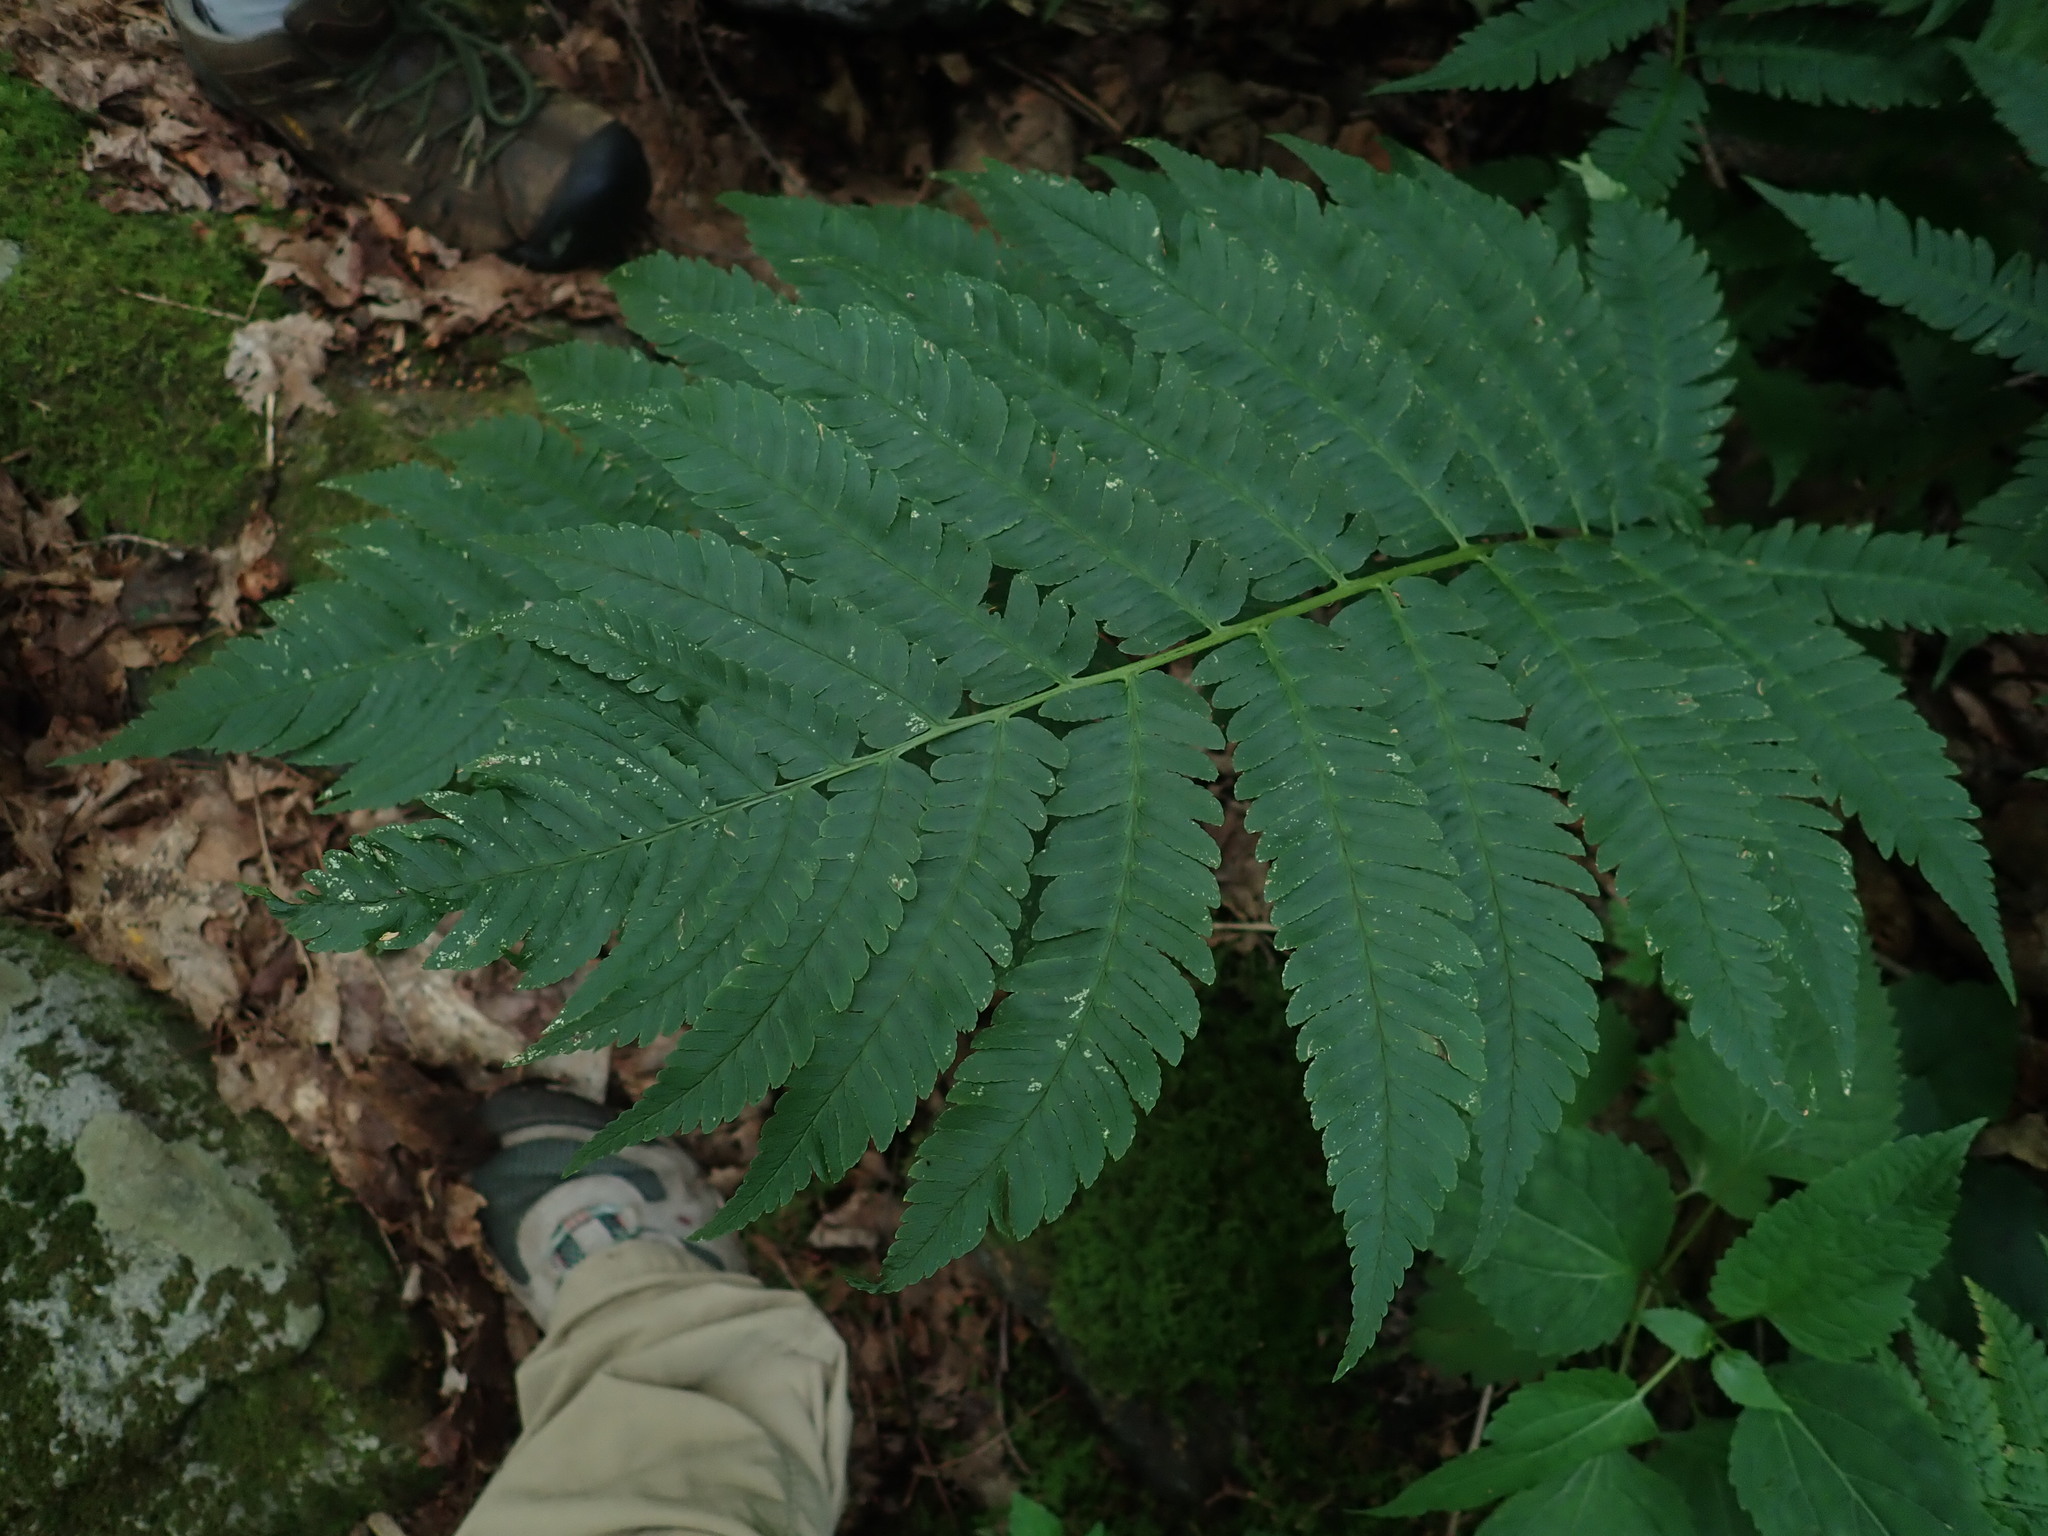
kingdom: Plantae
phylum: Tracheophyta
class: Polypodiopsida
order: Polypodiales
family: Dryopteridaceae
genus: Dryopteris
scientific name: Dryopteris goldieana
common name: Goldie's fern
